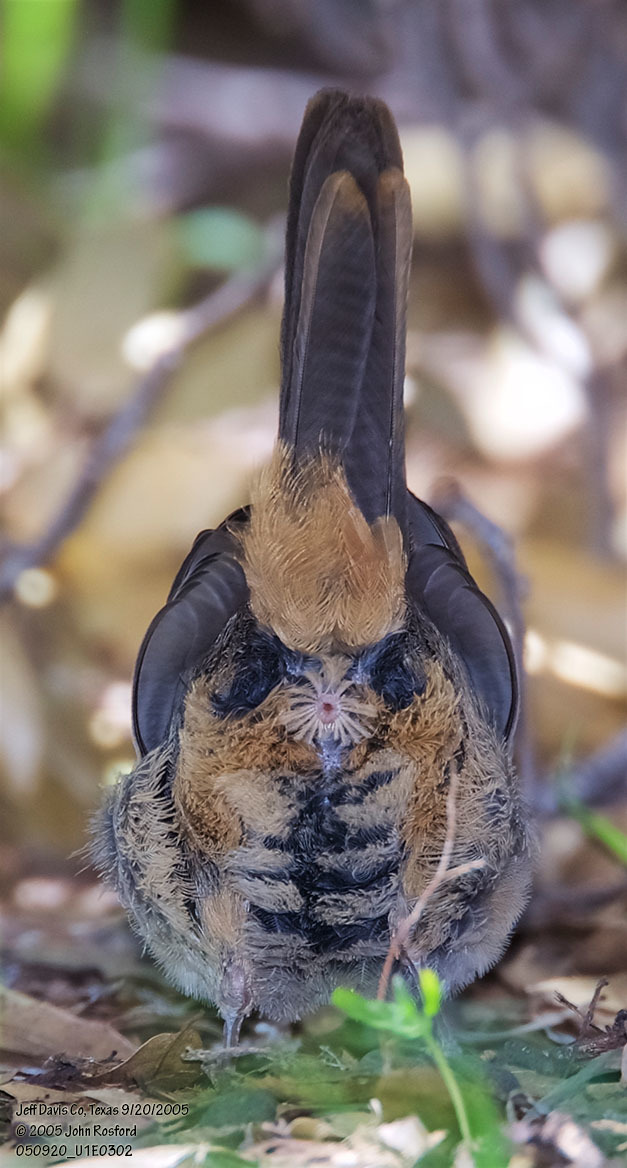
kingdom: Animalia
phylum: Chordata
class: Aves
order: Passeriformes
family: Passerellidae
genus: Melozone
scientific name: Melozone fusca
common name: Canyon towhee
